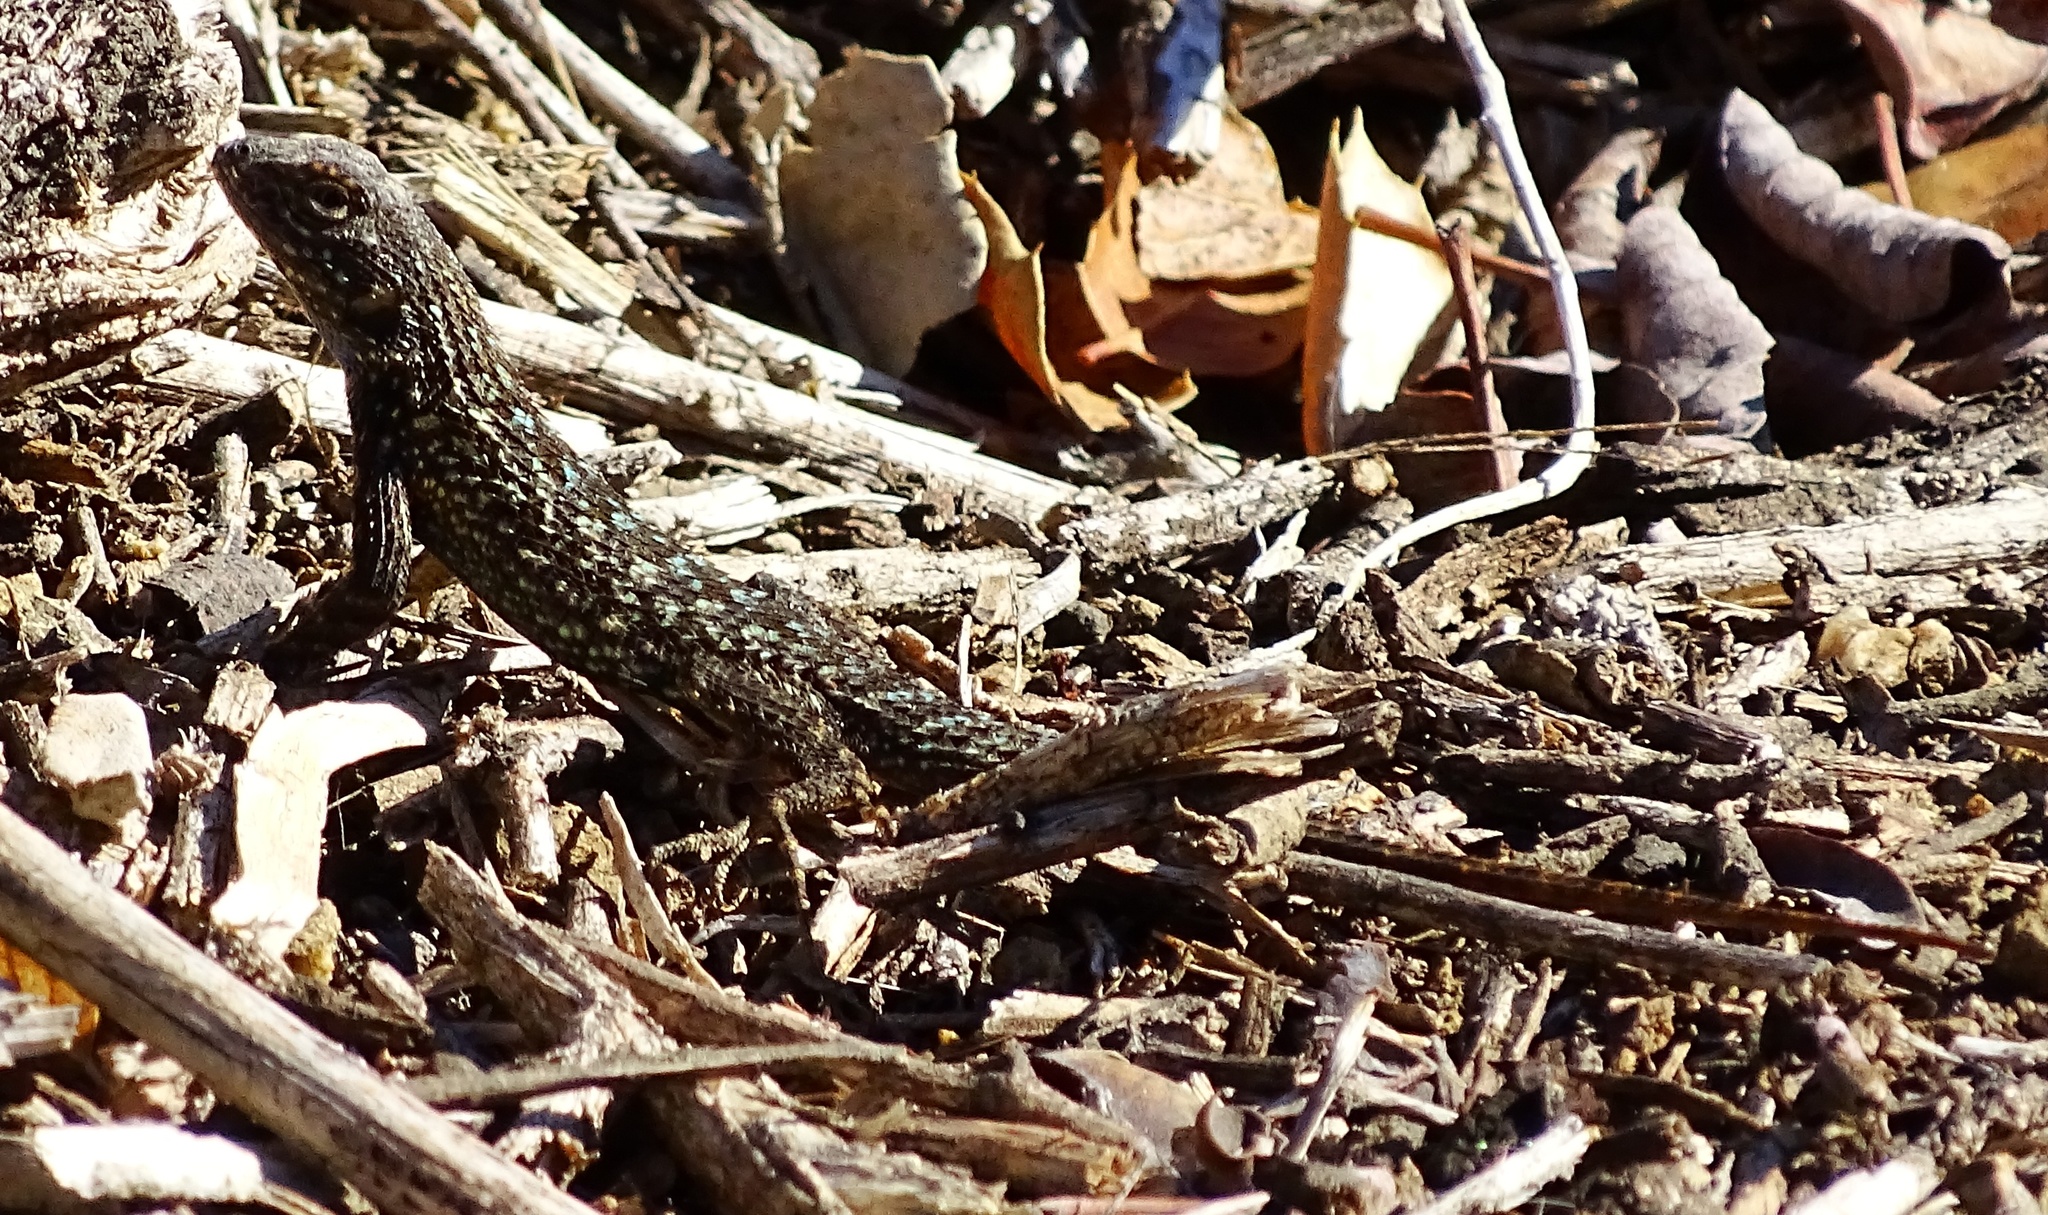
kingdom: Animalia
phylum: Chordata
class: Squamata
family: Phrynosomatidae
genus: Sceloporus
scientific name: Sceloporus occidentalis
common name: Western fence lizard
